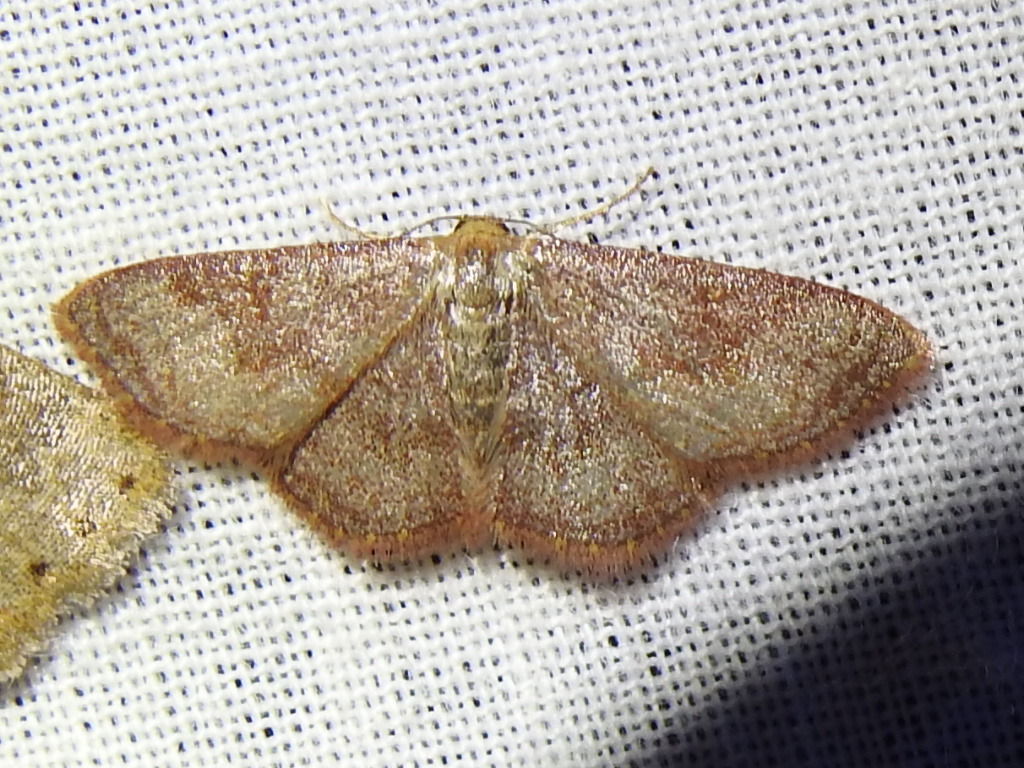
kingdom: Animalia
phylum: Arthropoda
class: Insecta
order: Lepidoptera
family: Geometridae
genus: Leptostales
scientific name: Leptostales pannaria
